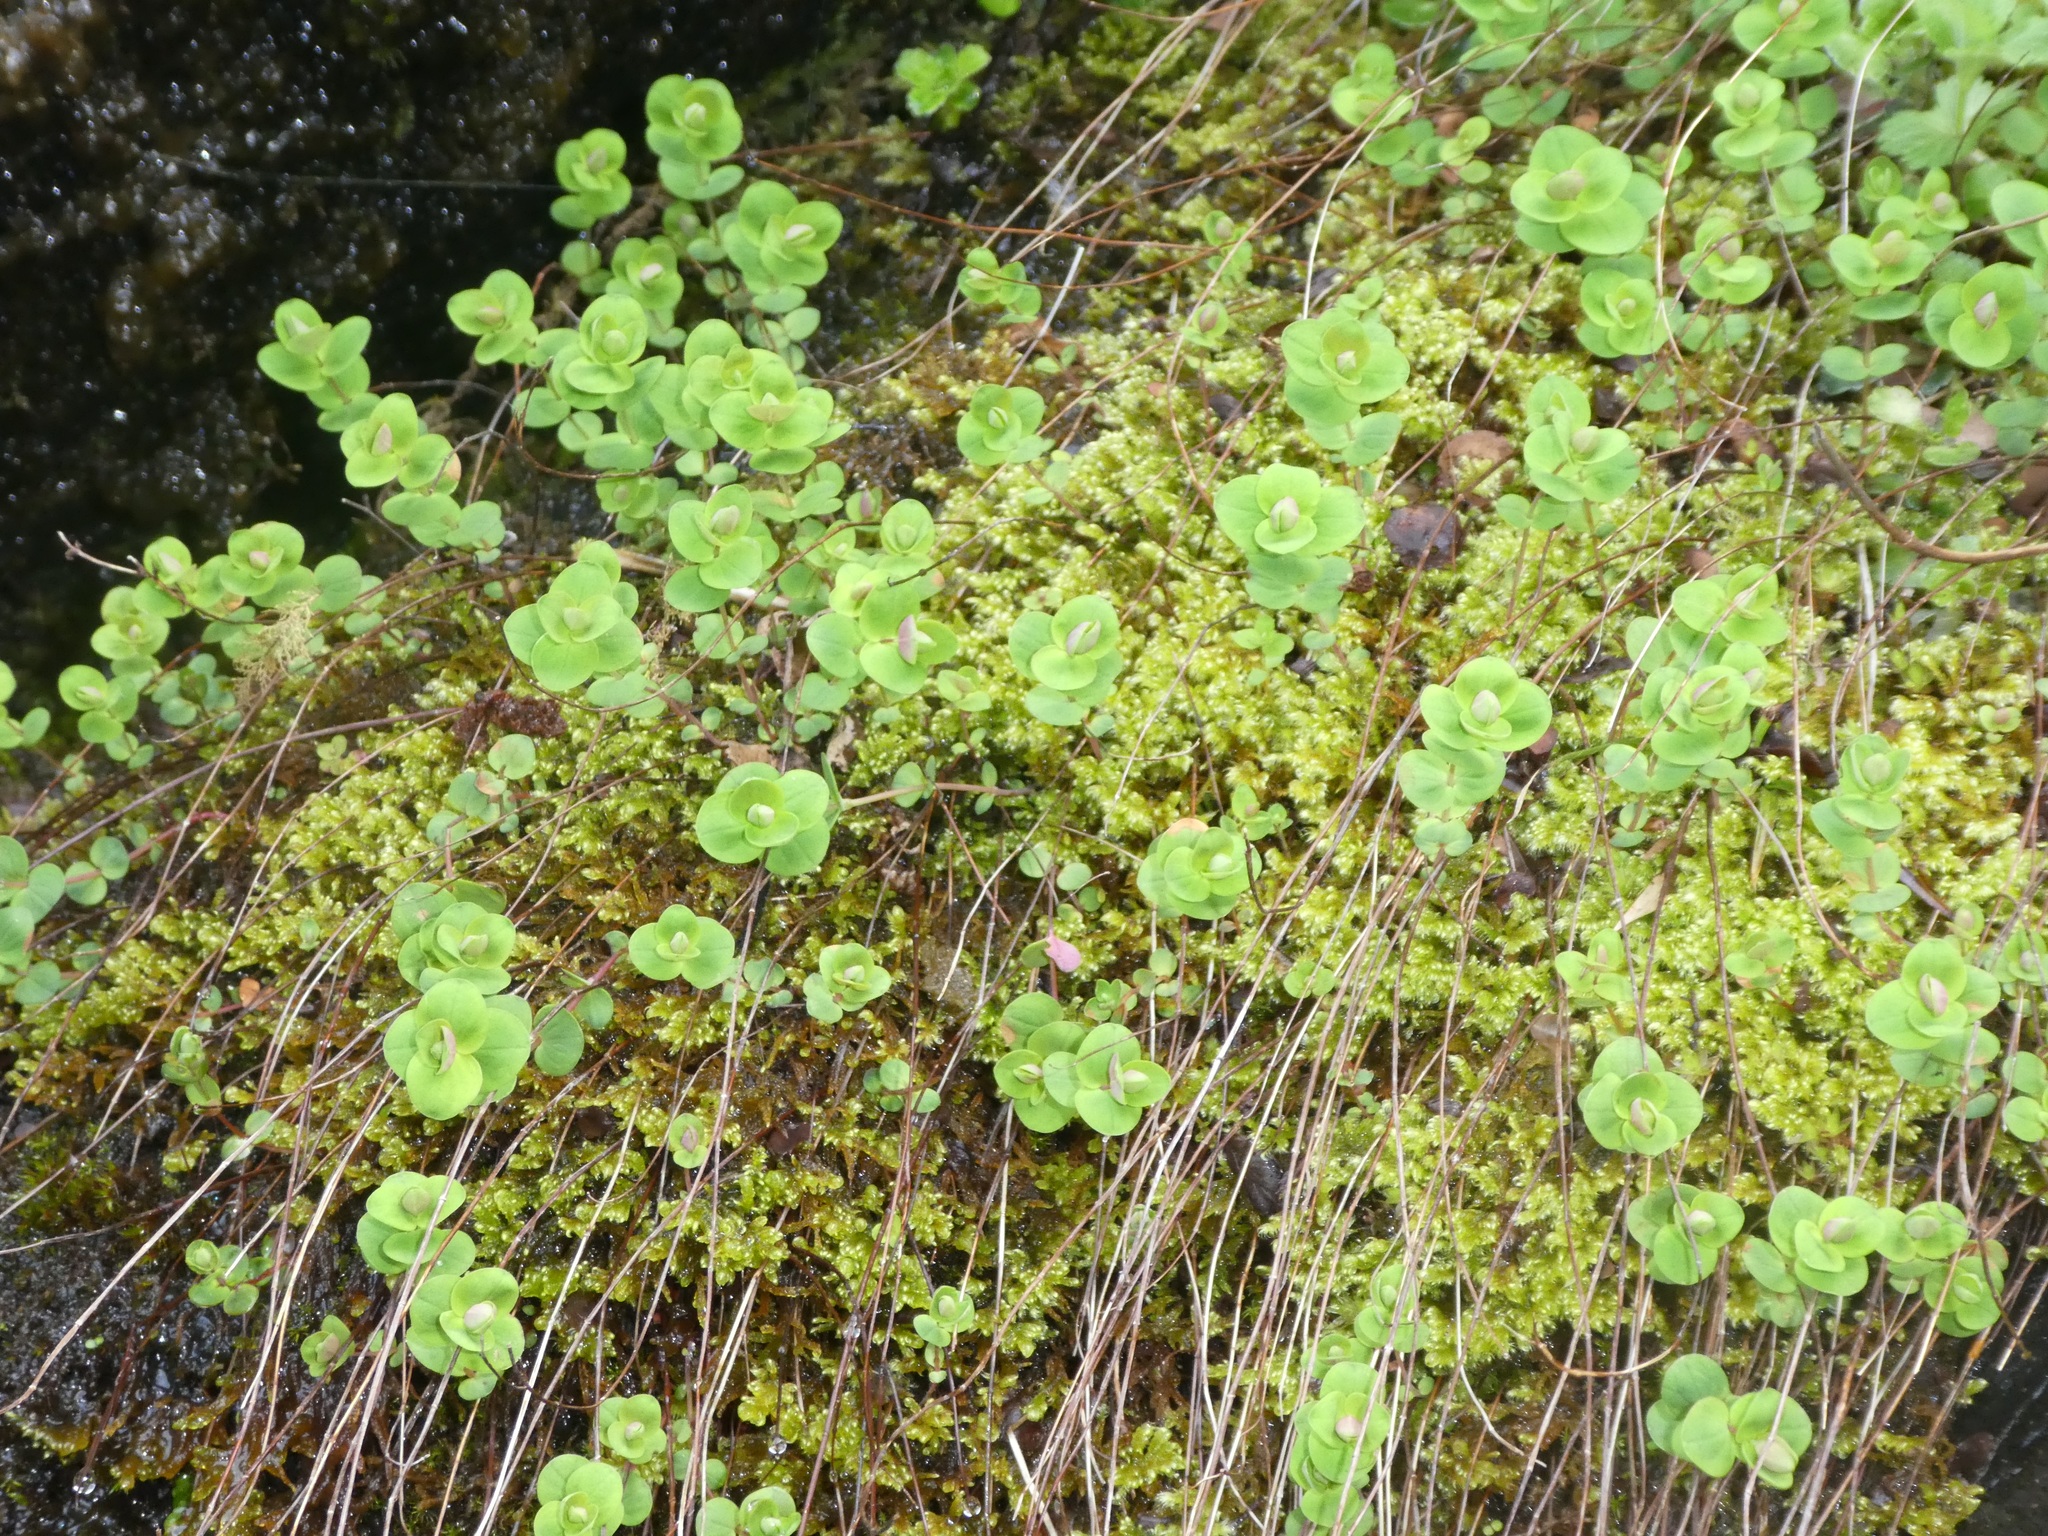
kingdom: Plantae
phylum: Tracheophyta
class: Magnoliopsida
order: Malpighiales
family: Hypericaceae
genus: Hypericum
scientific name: Hypericum nummularium
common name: Round-leaved st john's-wort
